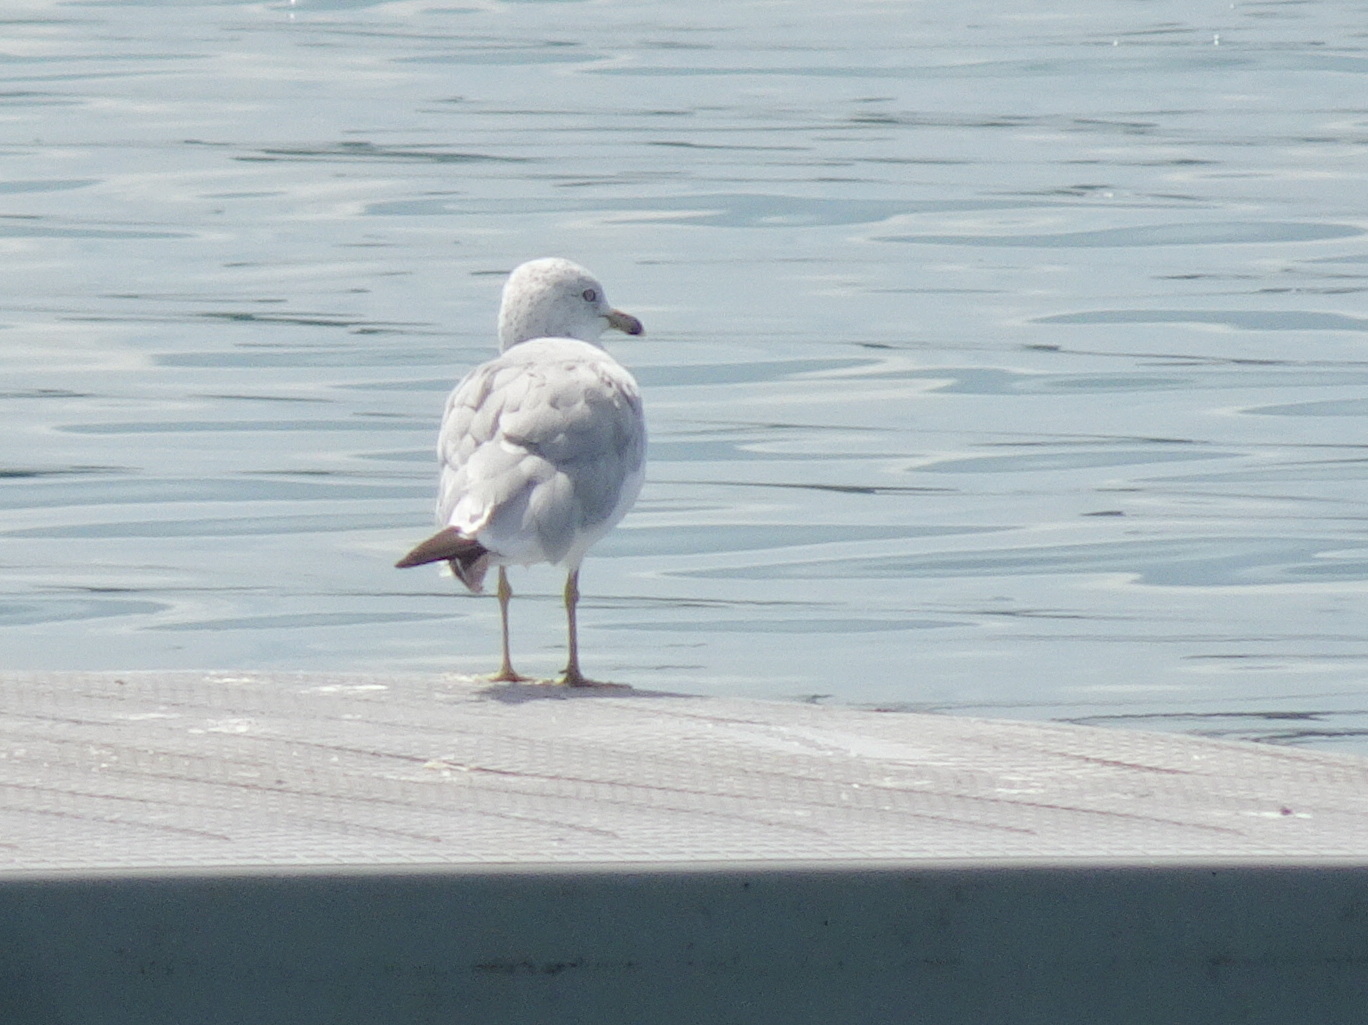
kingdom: Animalia
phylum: Chordata
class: Aves
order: Charadriiformes
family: Laridae
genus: Larus
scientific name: Larus delawarensis
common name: Ring-billed gull
